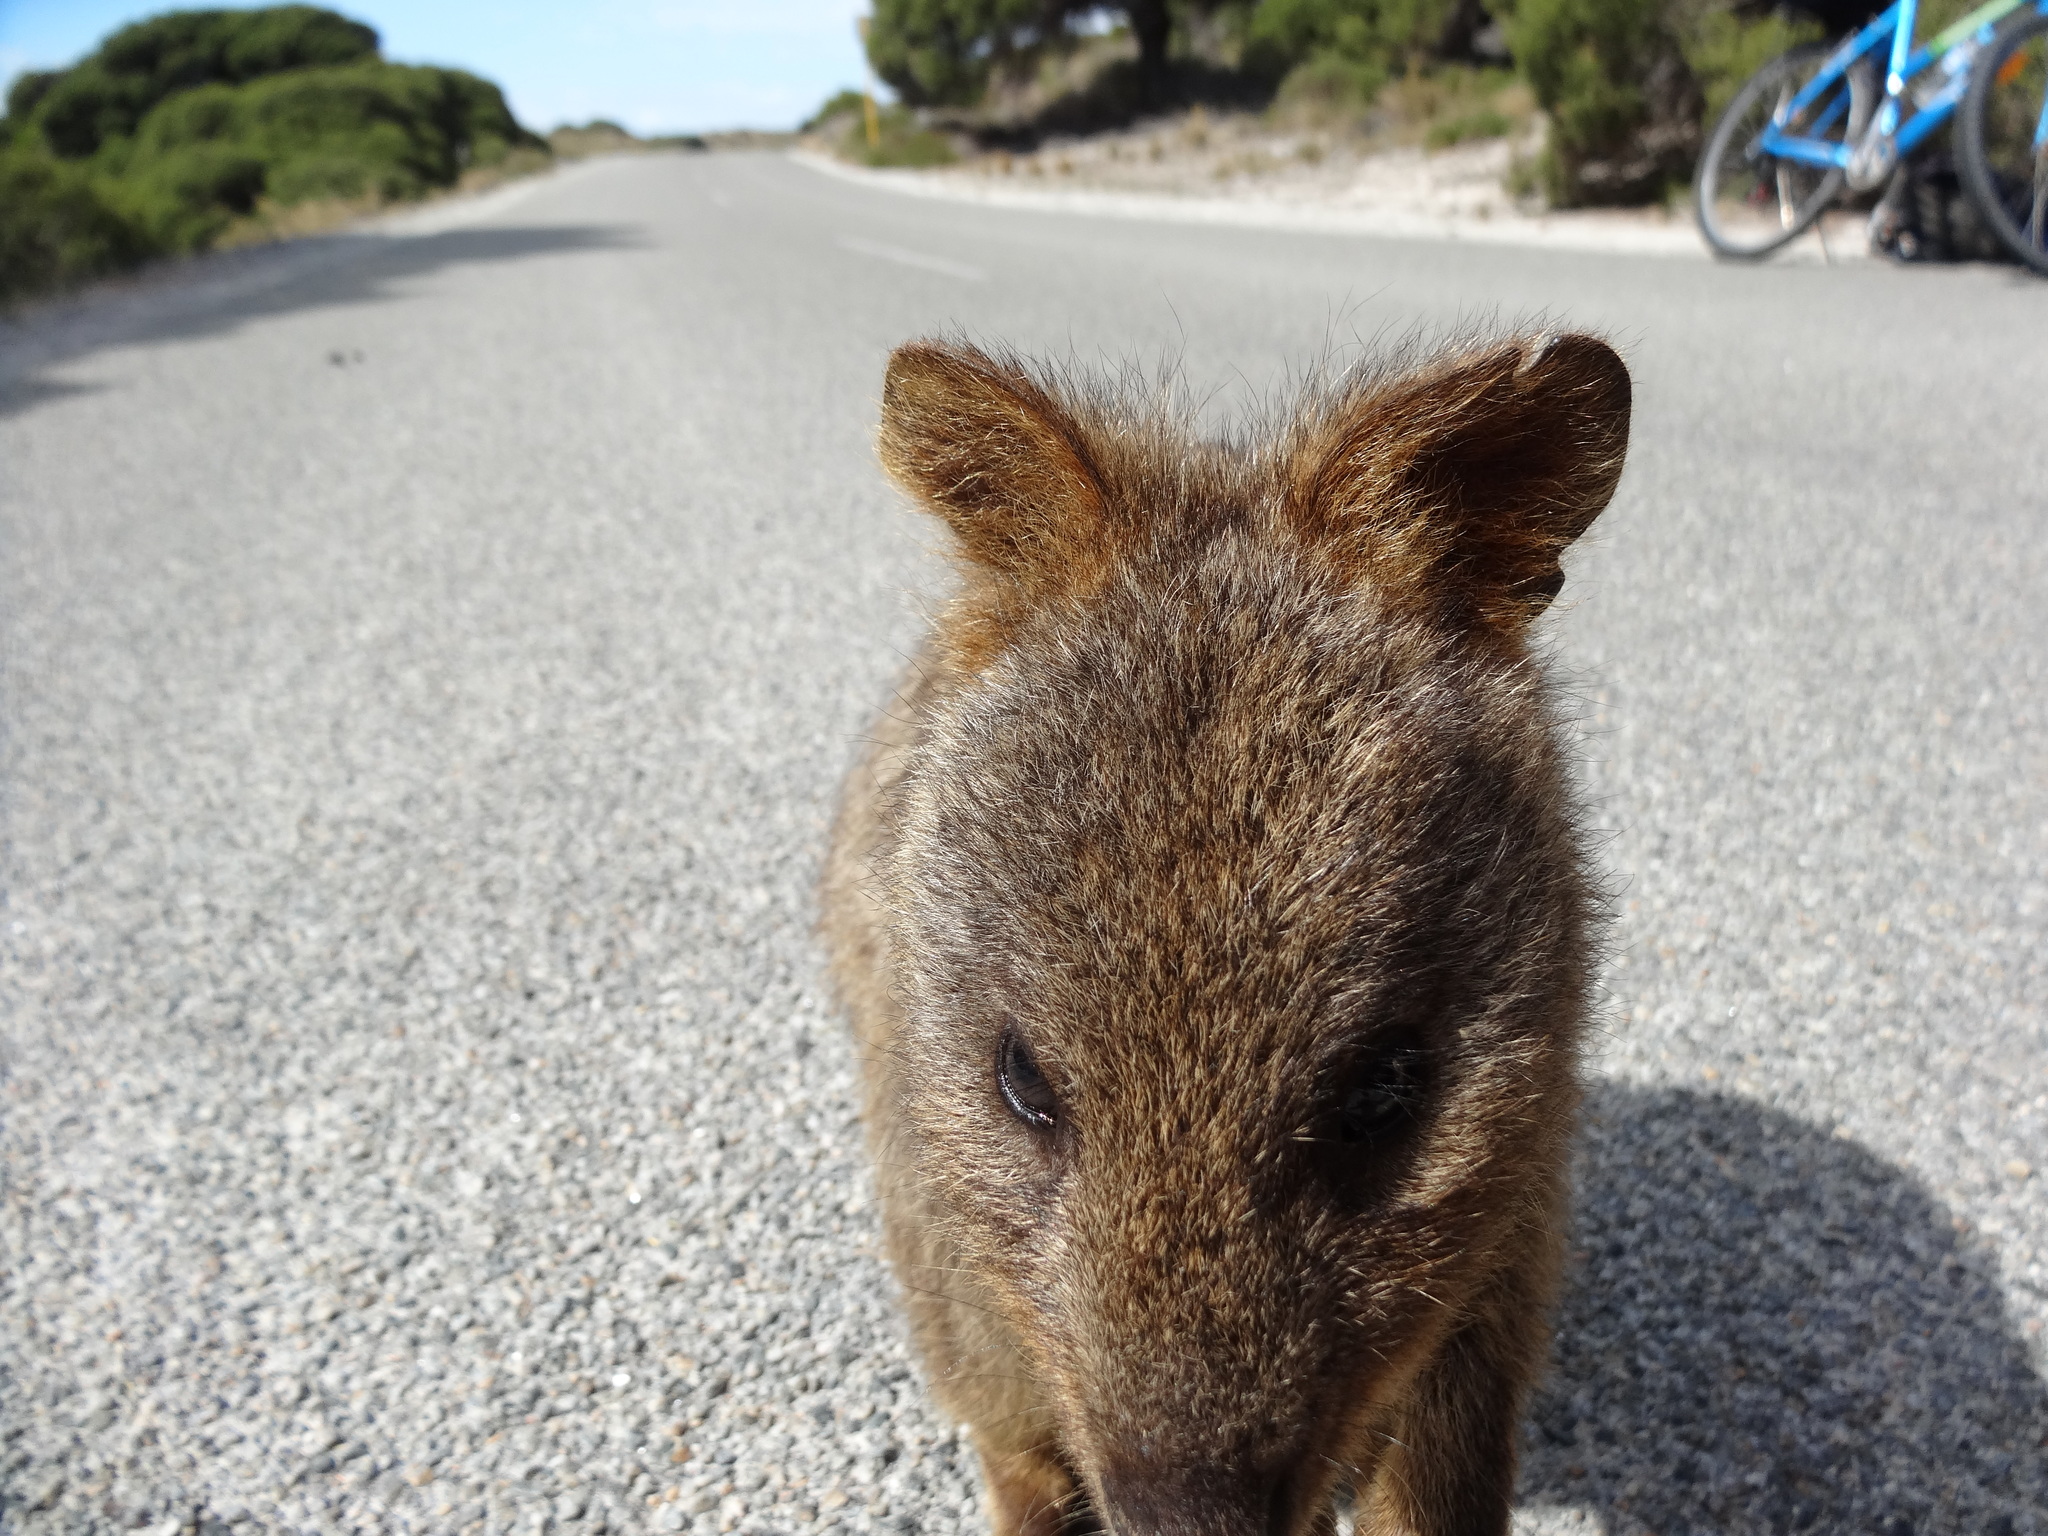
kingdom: Animalia
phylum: Chordata
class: Mammalia
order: Diprotodontia
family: Macropodidae
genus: Setonix
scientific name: Setonix brachyurus
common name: Quokka
